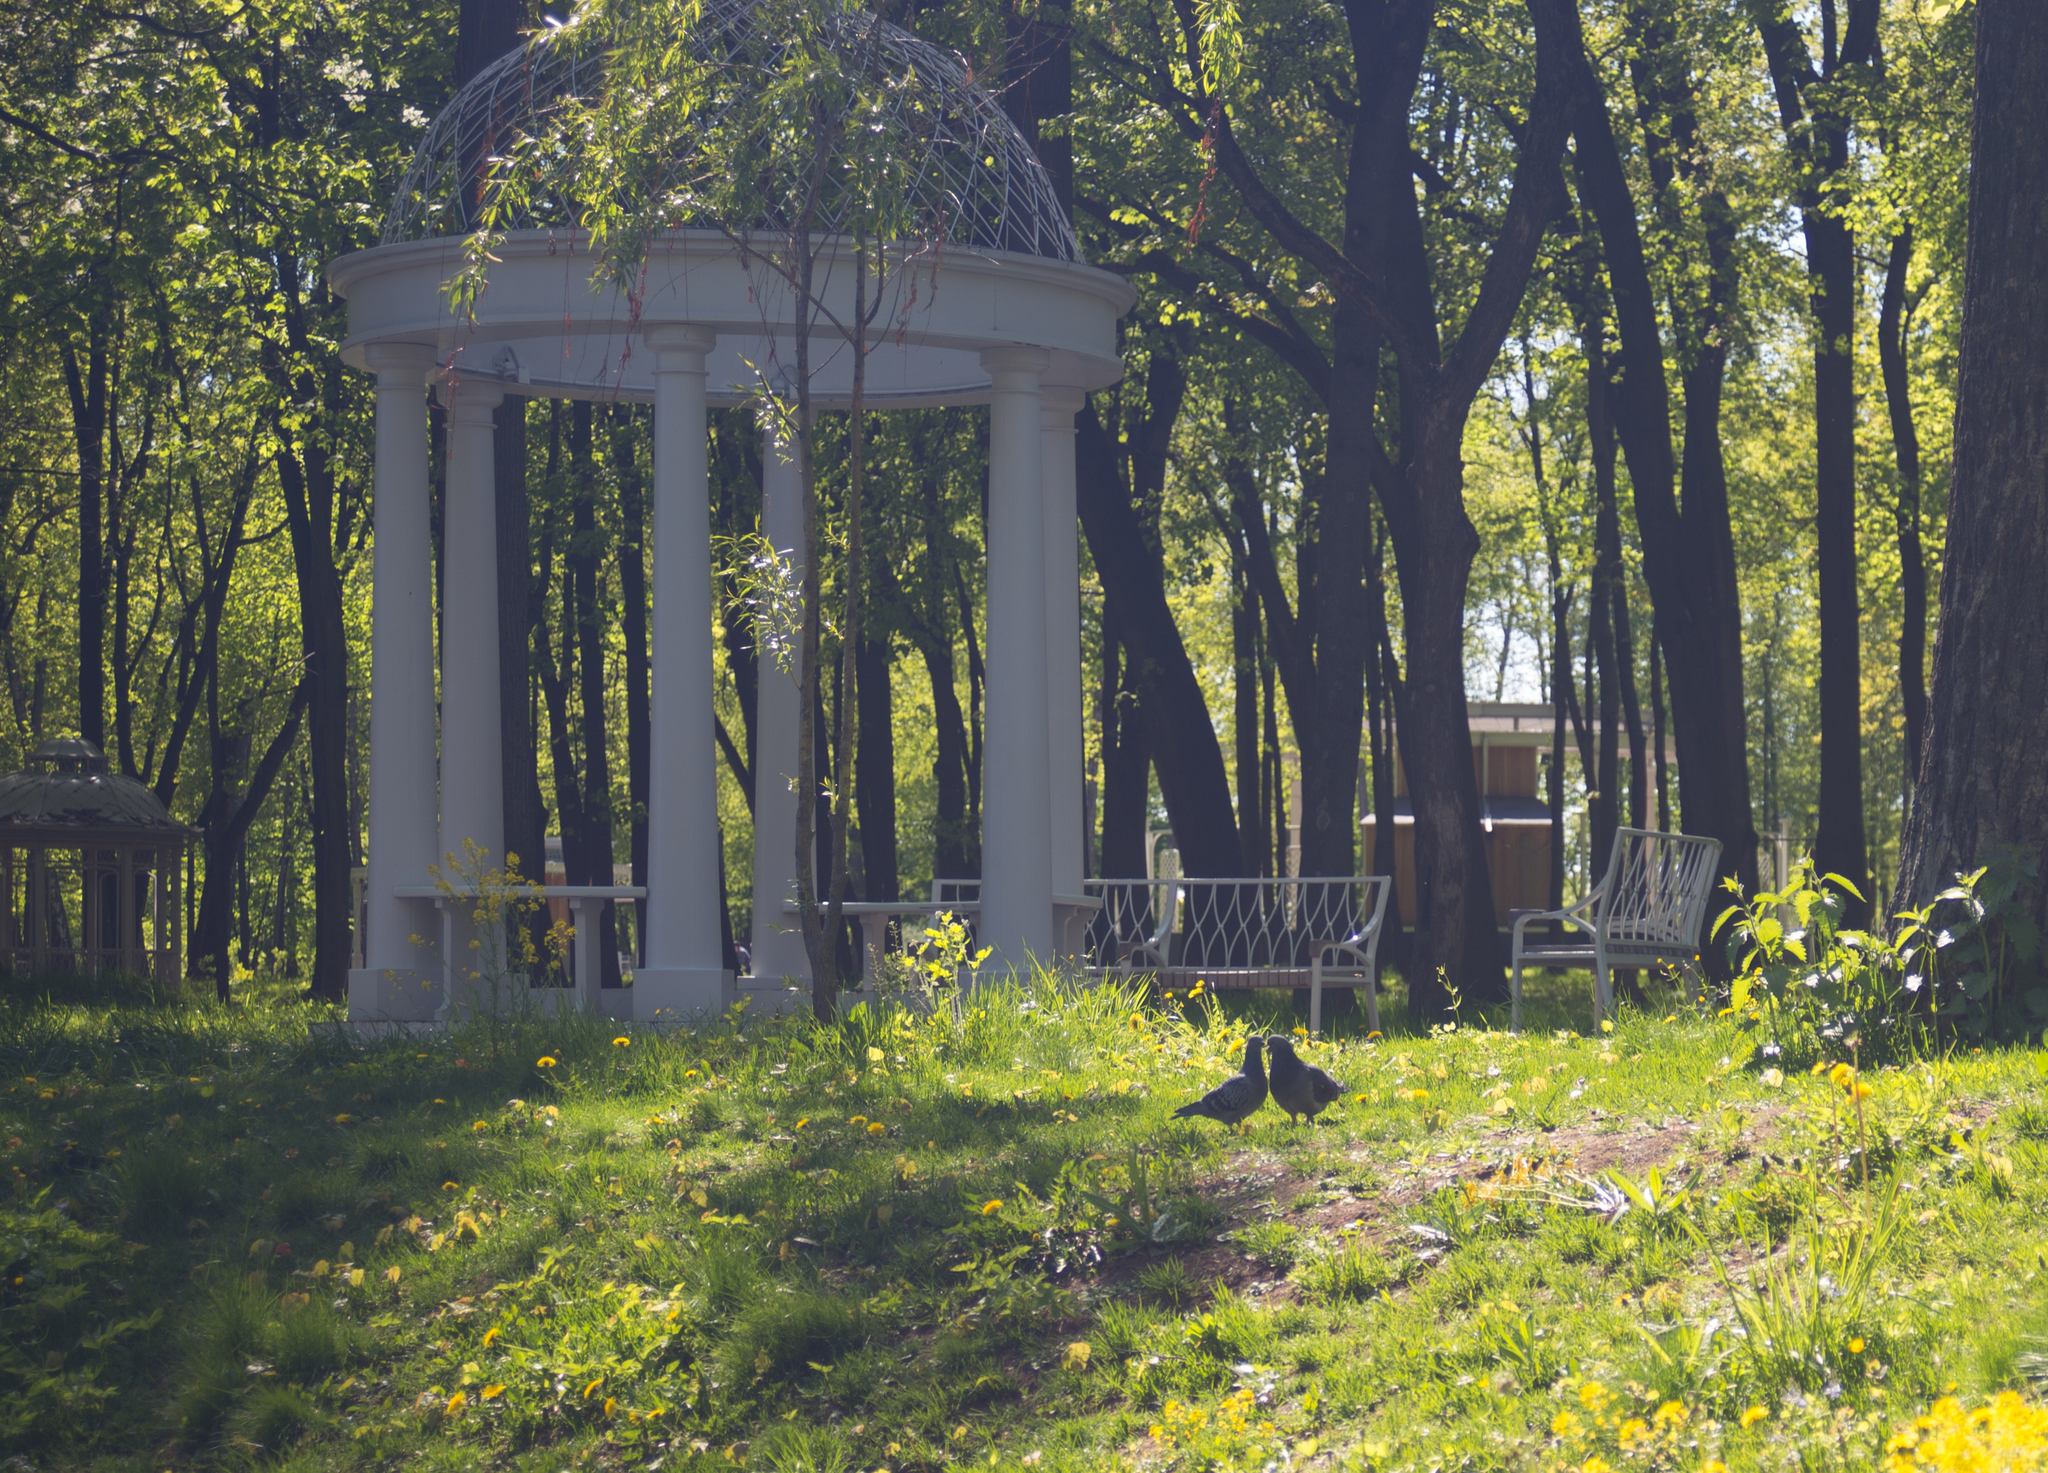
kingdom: Animalia
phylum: Chordata
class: Aves
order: Columbiformes
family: Columbidae
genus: Columba
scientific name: Columba livia
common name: Rock pigeon
